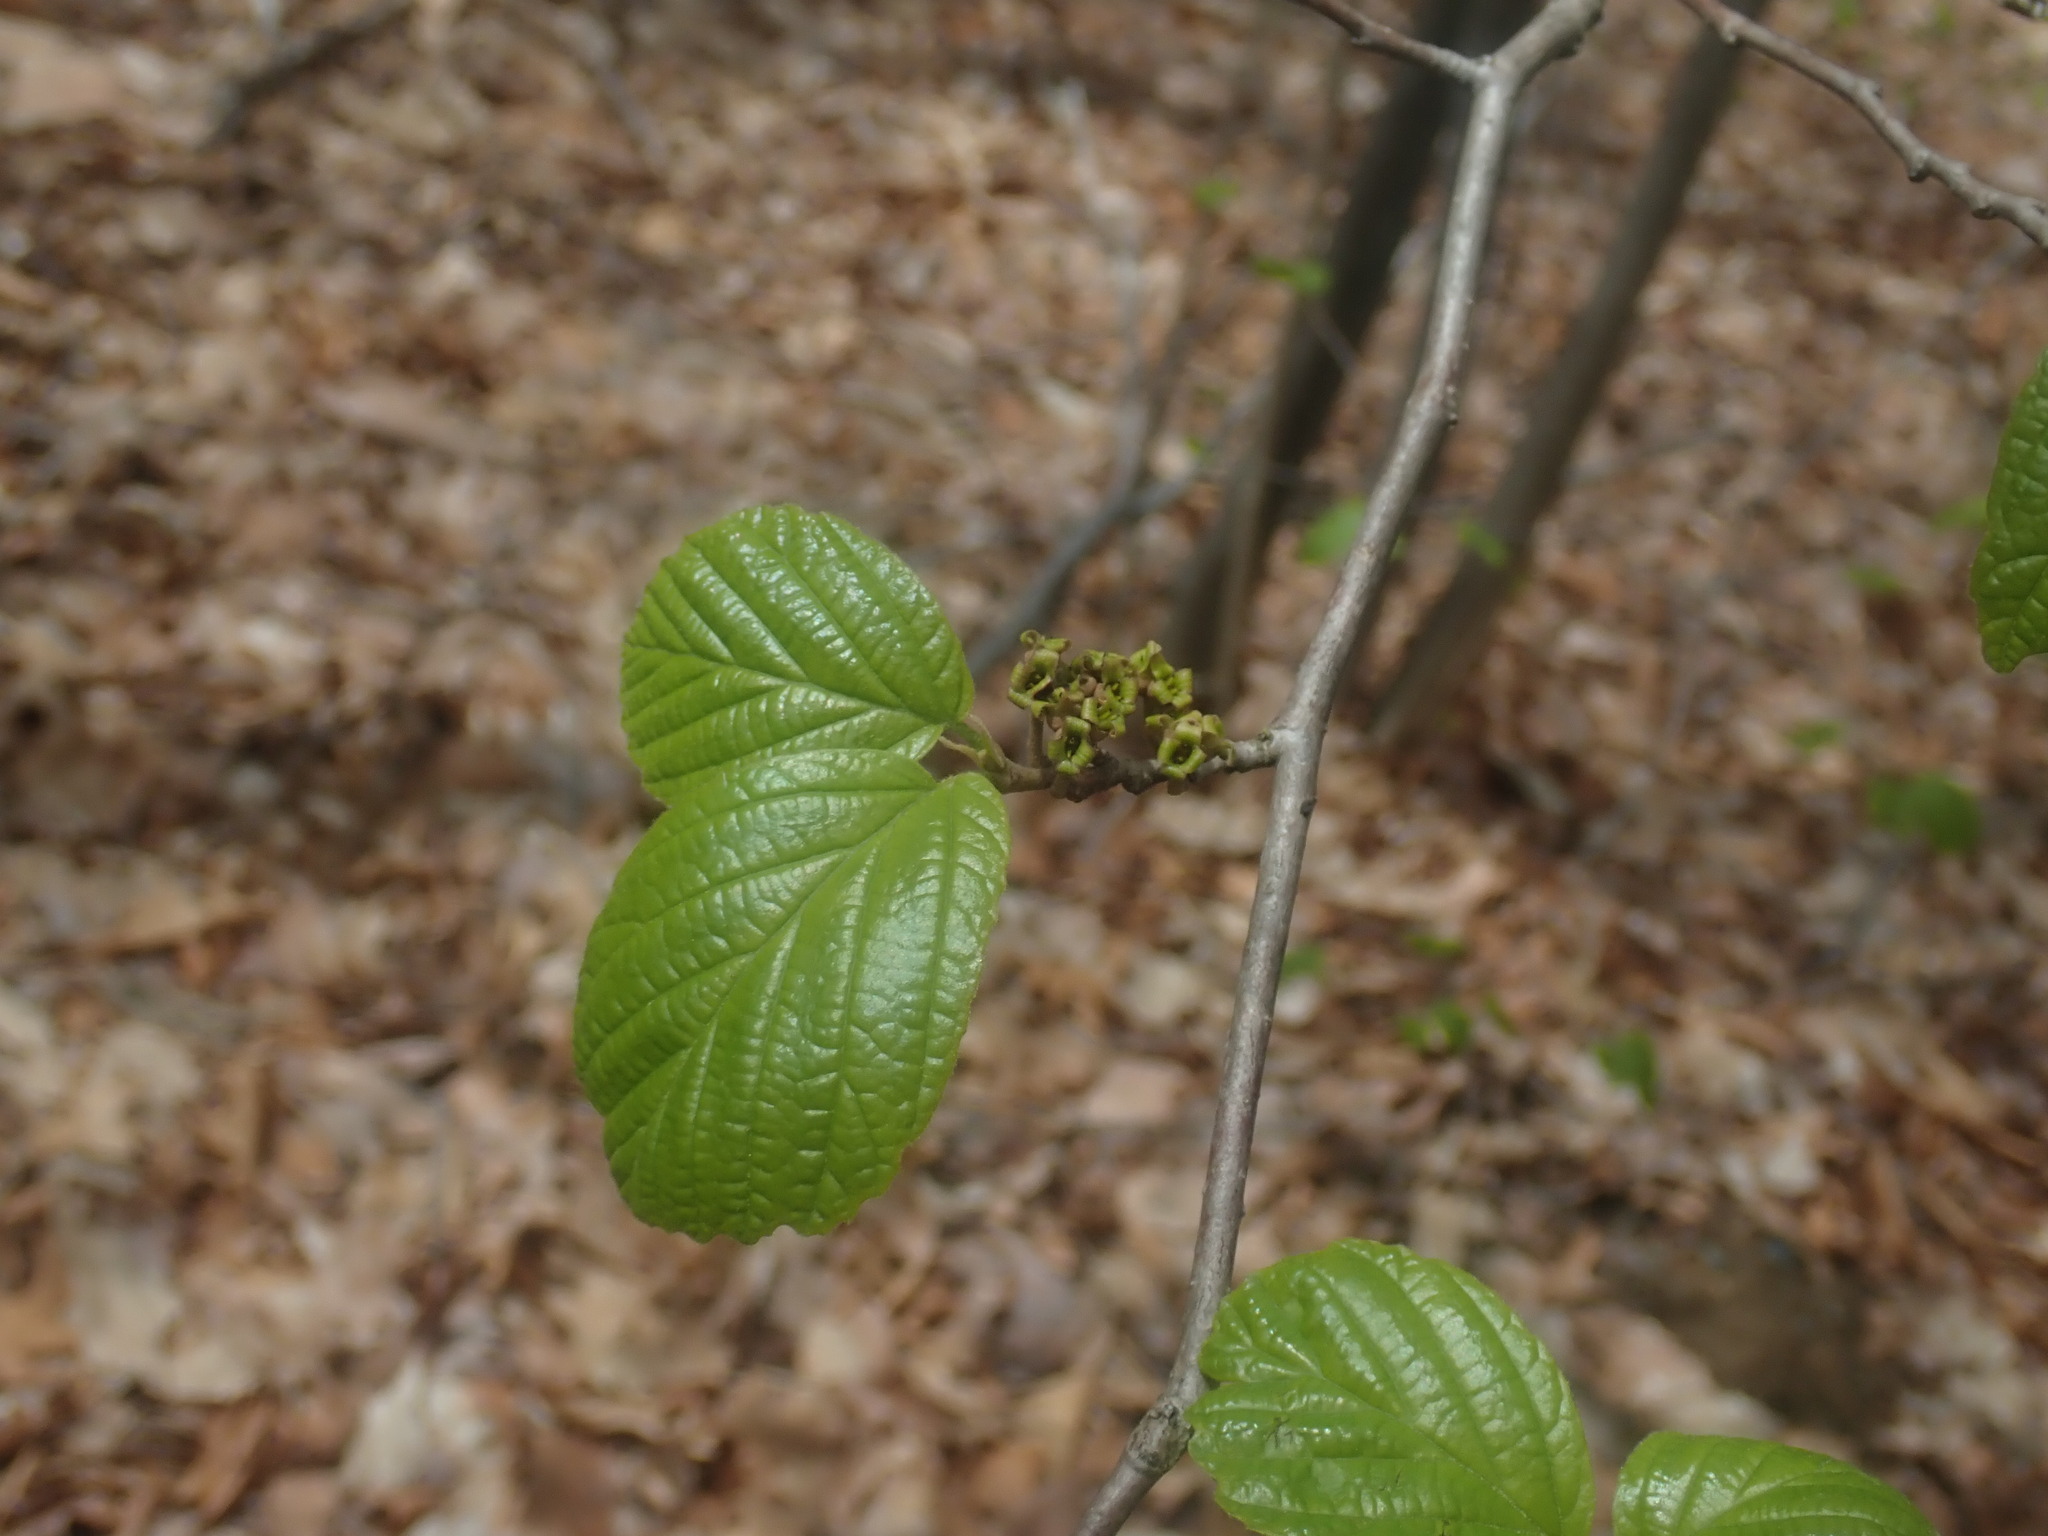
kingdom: Plantae
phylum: Tracheophyta
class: Magnoliopsida
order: Saxifragales
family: Hamamelidaceae
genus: Hamamelis
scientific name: Hamamelis virginiana
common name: Witch-hazel
